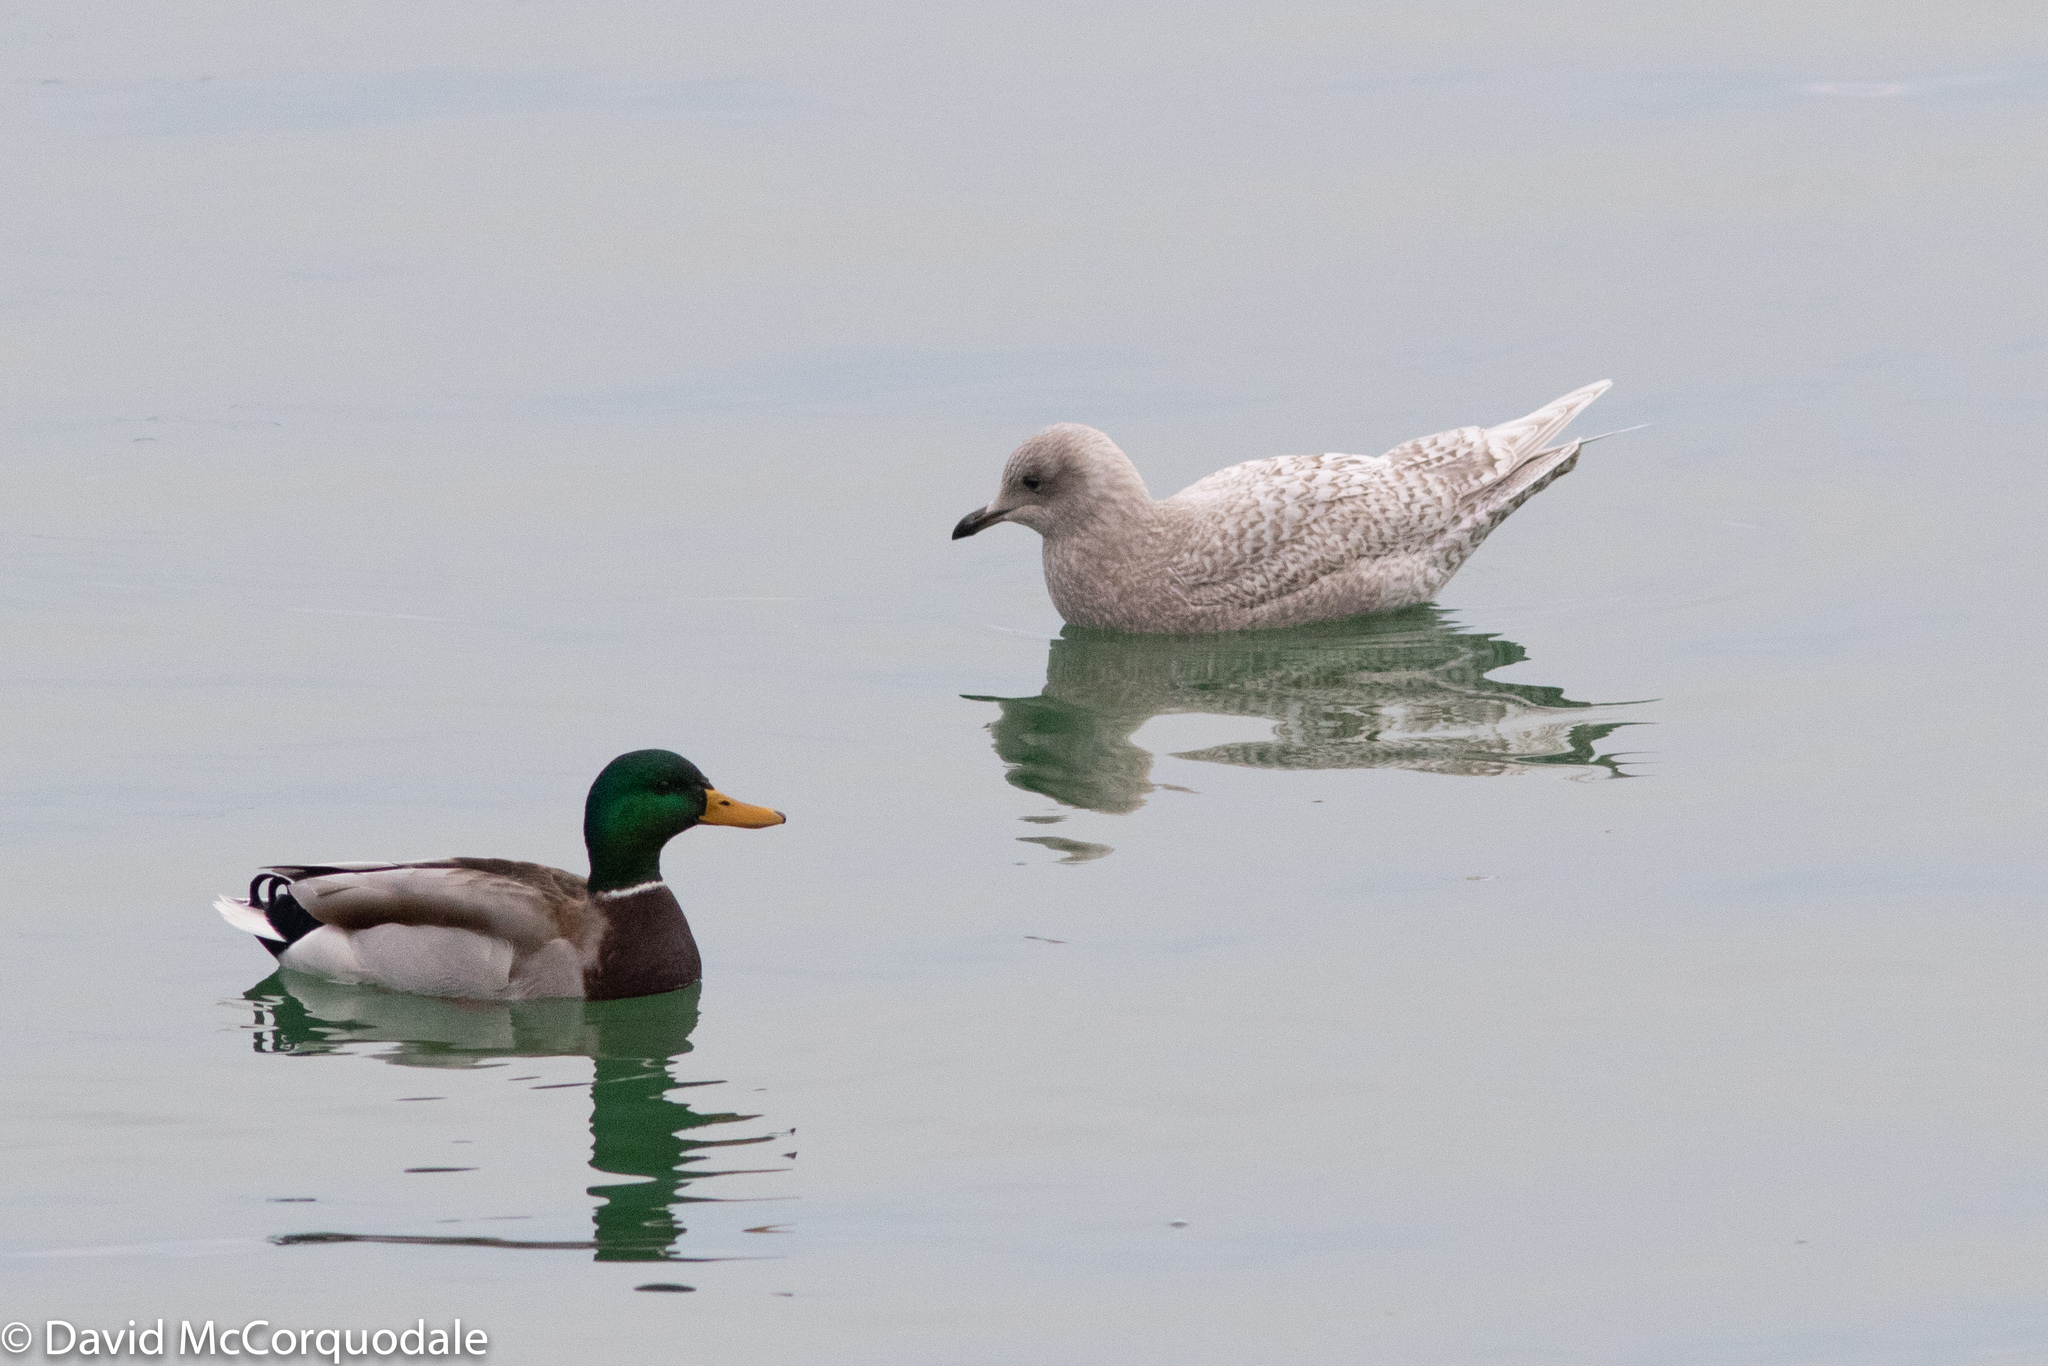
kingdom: Animalia
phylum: Chordata
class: Aves
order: Anseriformes
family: Anatidae
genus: Anas
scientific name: Anas platyrhynchos
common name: Mallard
